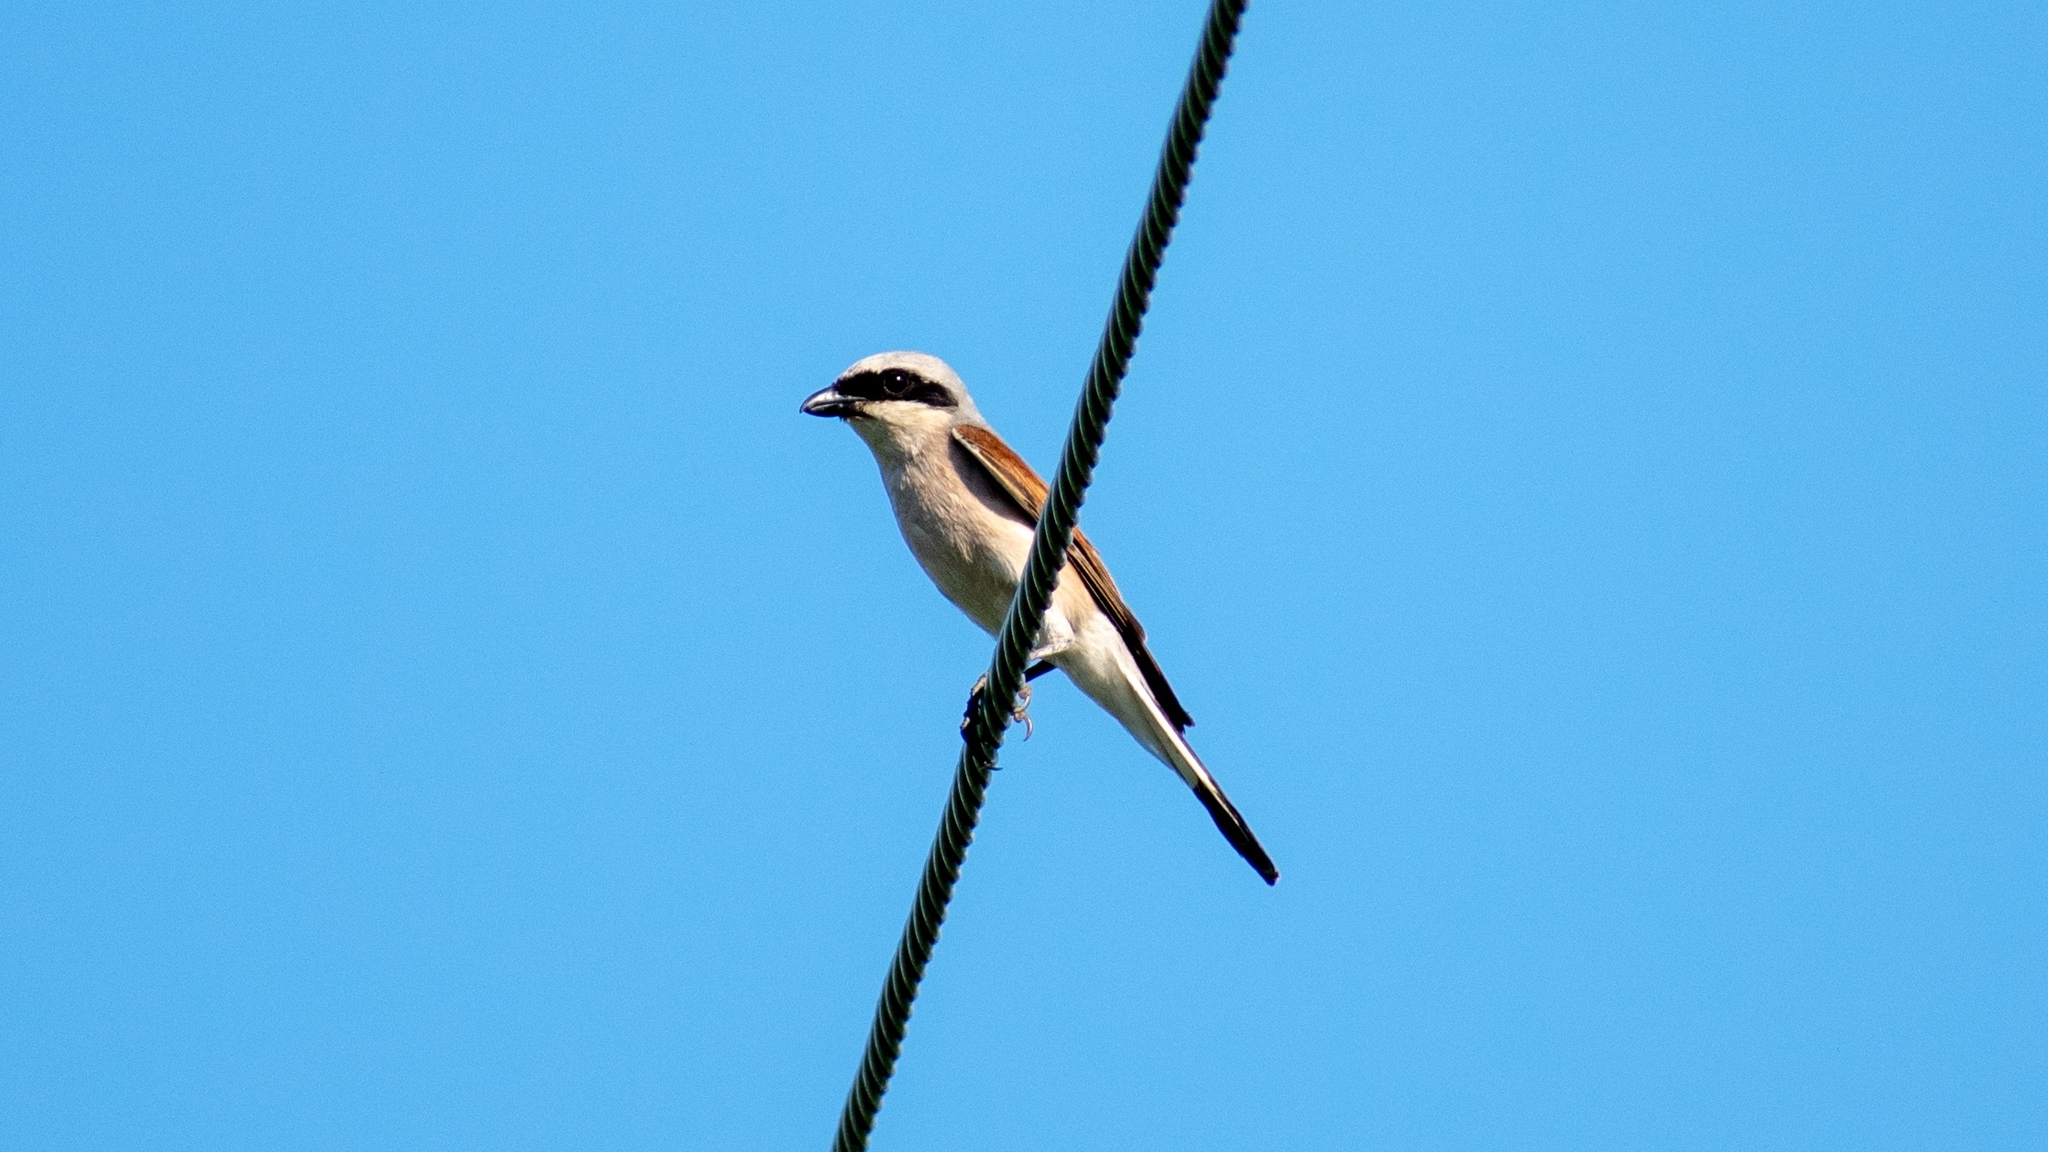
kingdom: Animalia
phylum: Chordata
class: Aves
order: Passeriformes
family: Laniidae
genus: Lanius
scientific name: Lanius collurio
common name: Red-backed shrike
